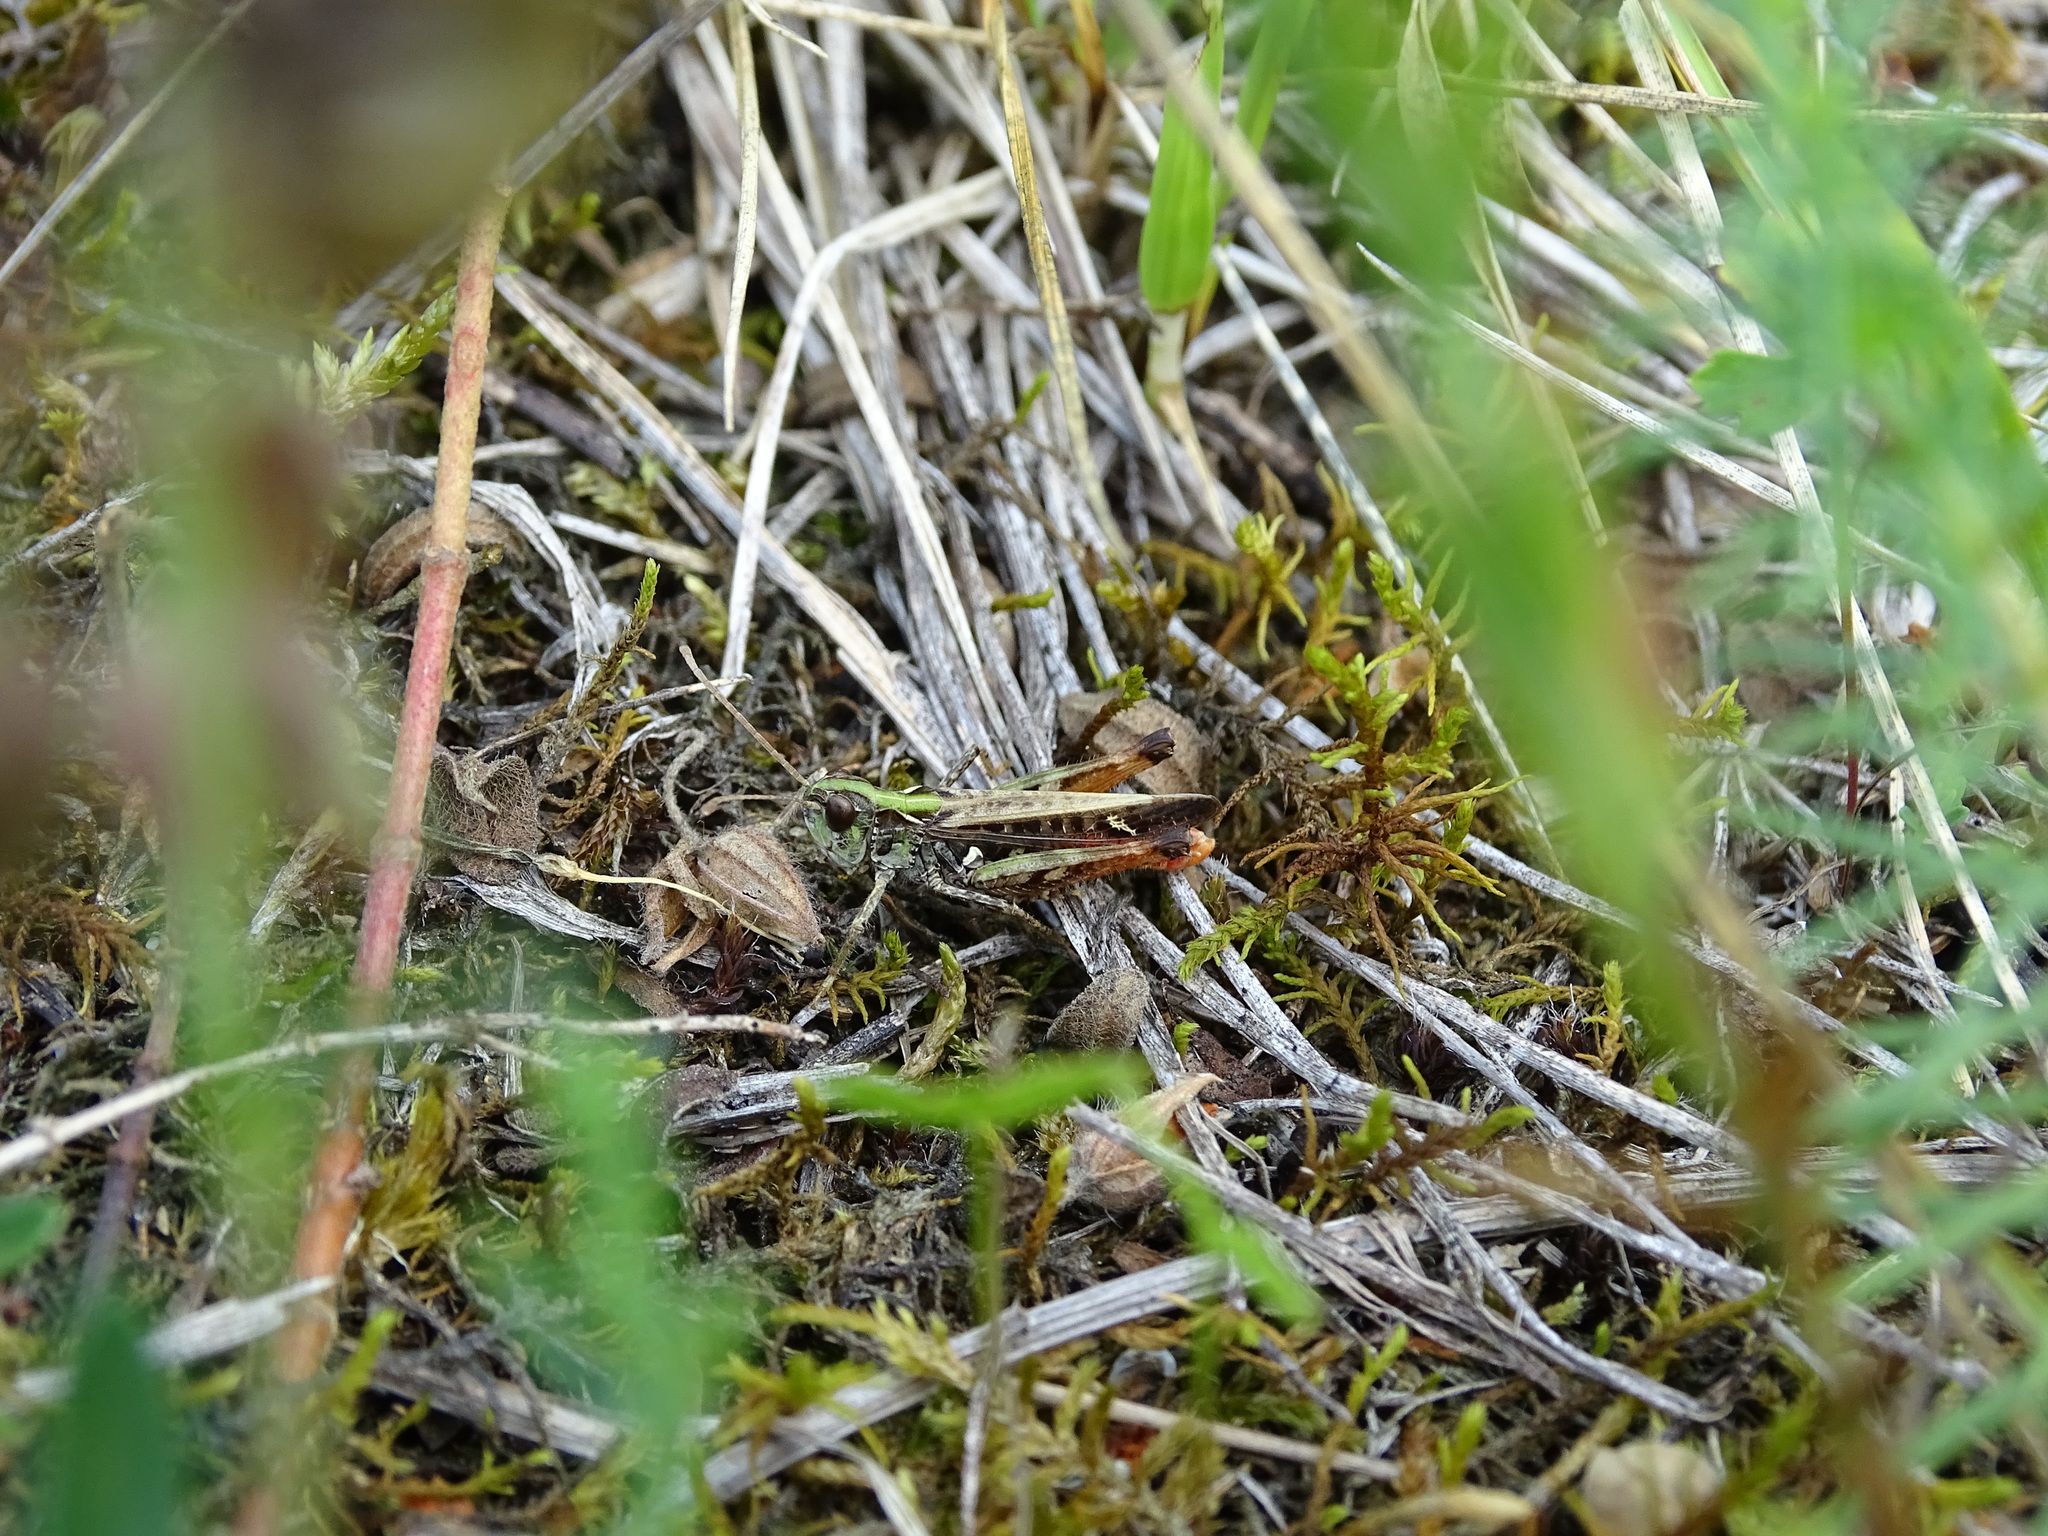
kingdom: Animalia
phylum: Arthropoda
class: Insecta
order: Orthoptera
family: Acrididae
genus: Myrmeleotettix
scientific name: Myrmeleotettix maculatus
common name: Mottled grasshopper
